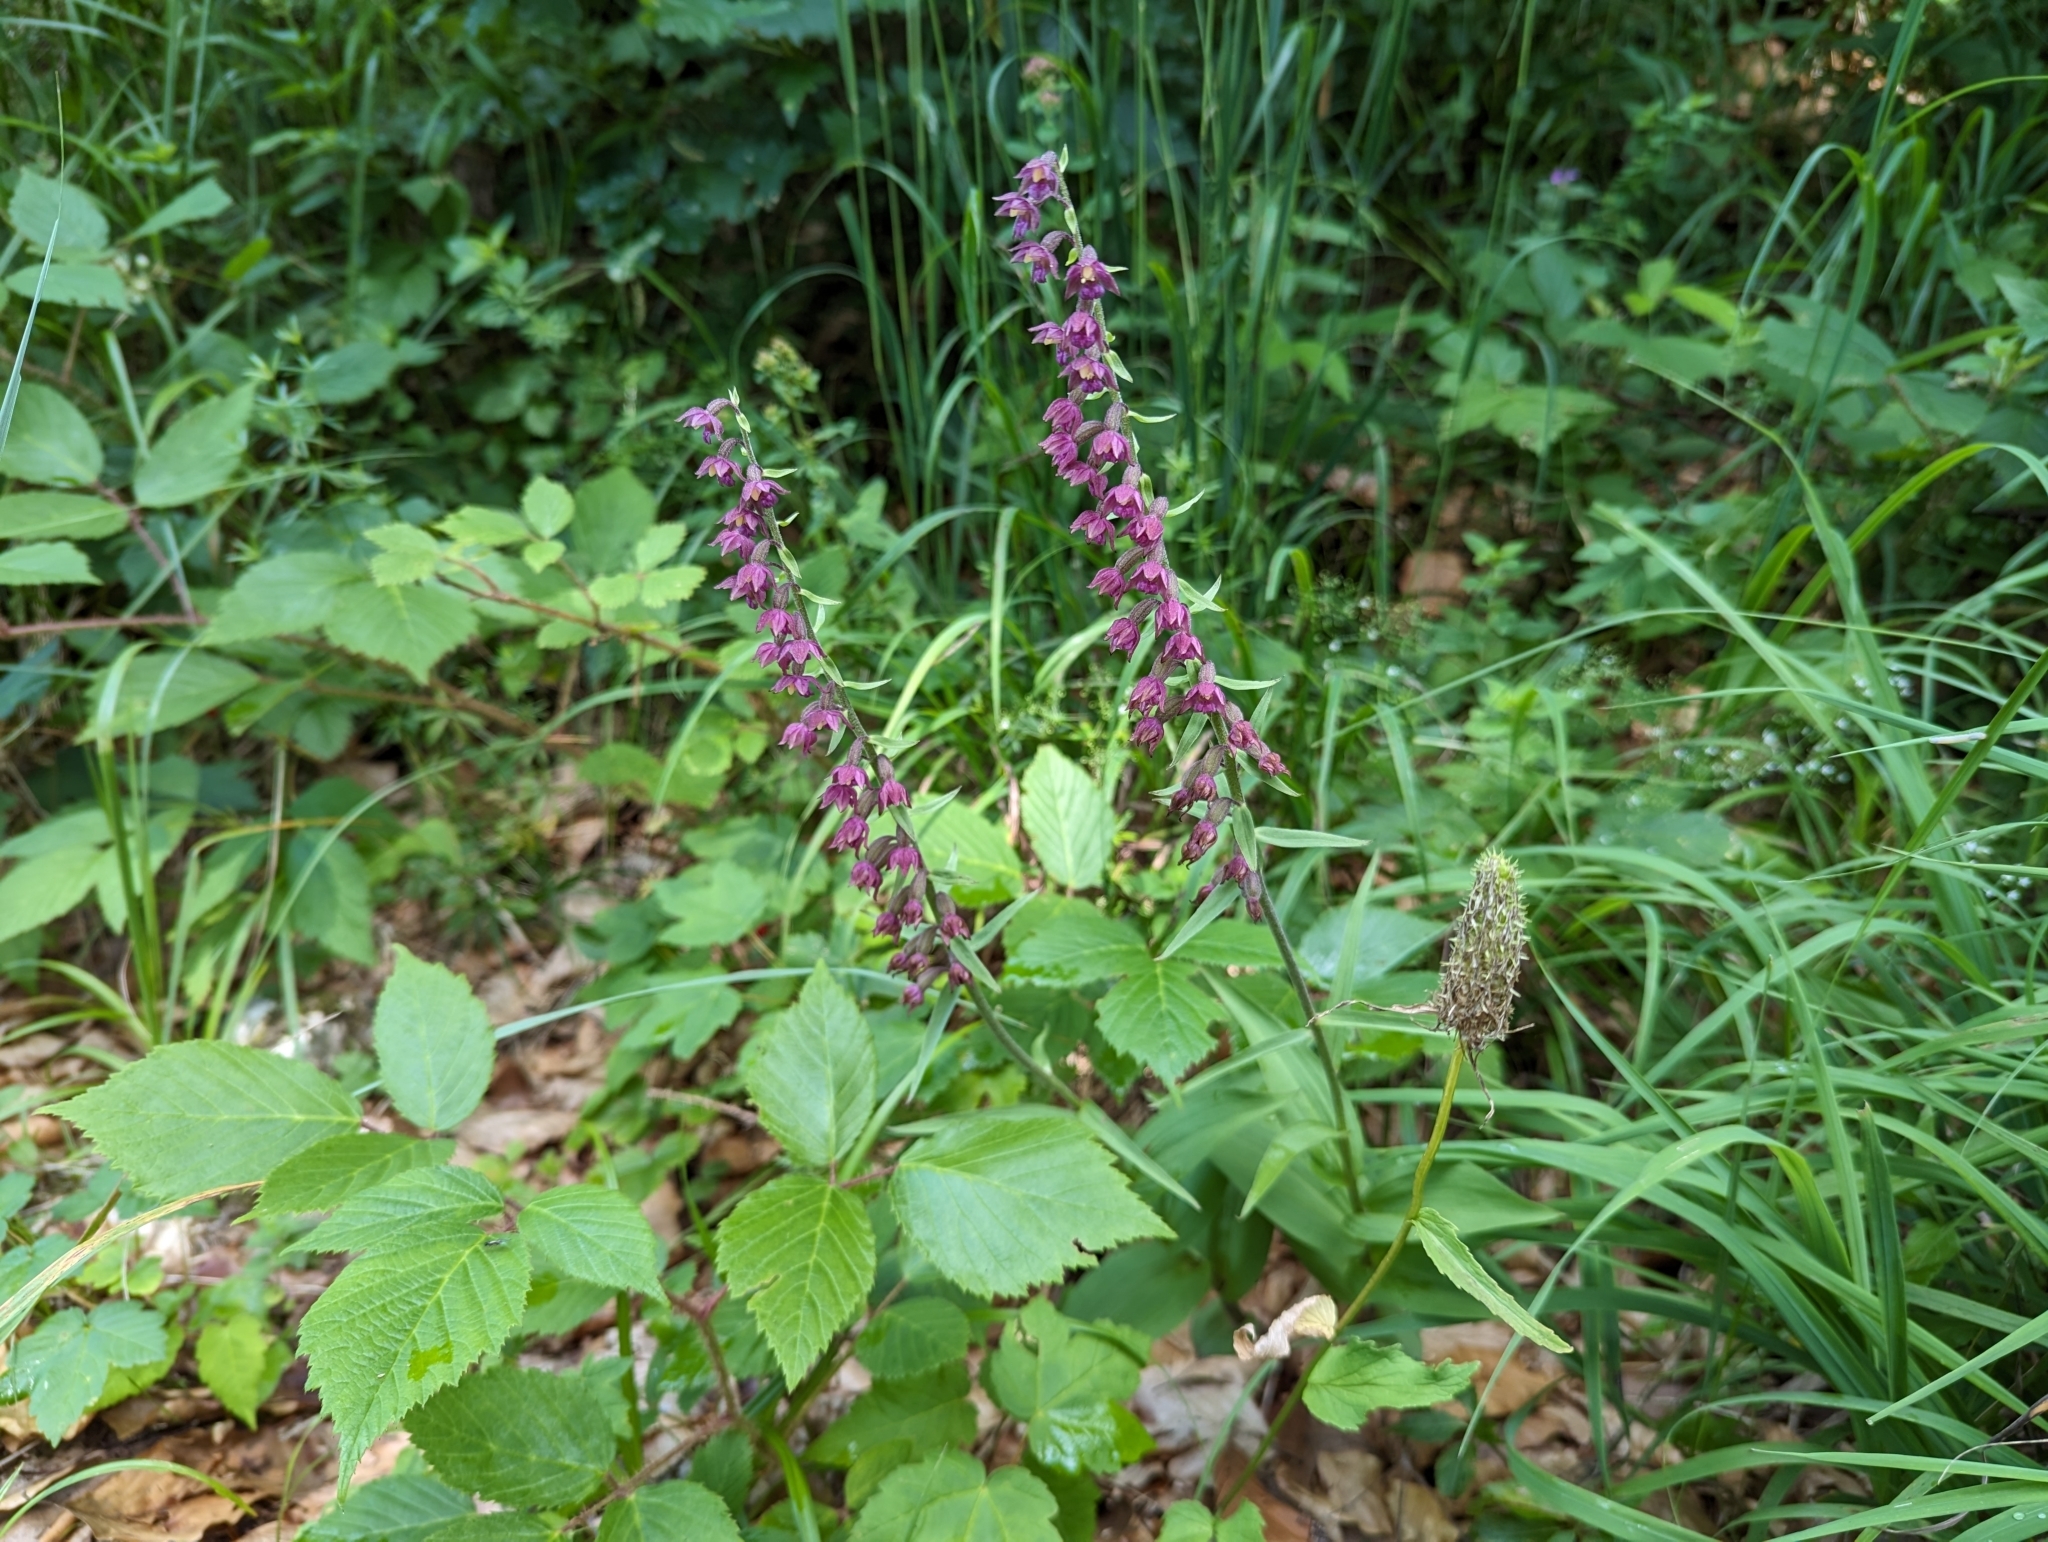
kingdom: Plantae
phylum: Tracheophyta
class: Liliopsida
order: Asparagales
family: Orchidaceae
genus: Epipactis
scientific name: Epipactis atrorubens
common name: Dark-red helleborine
